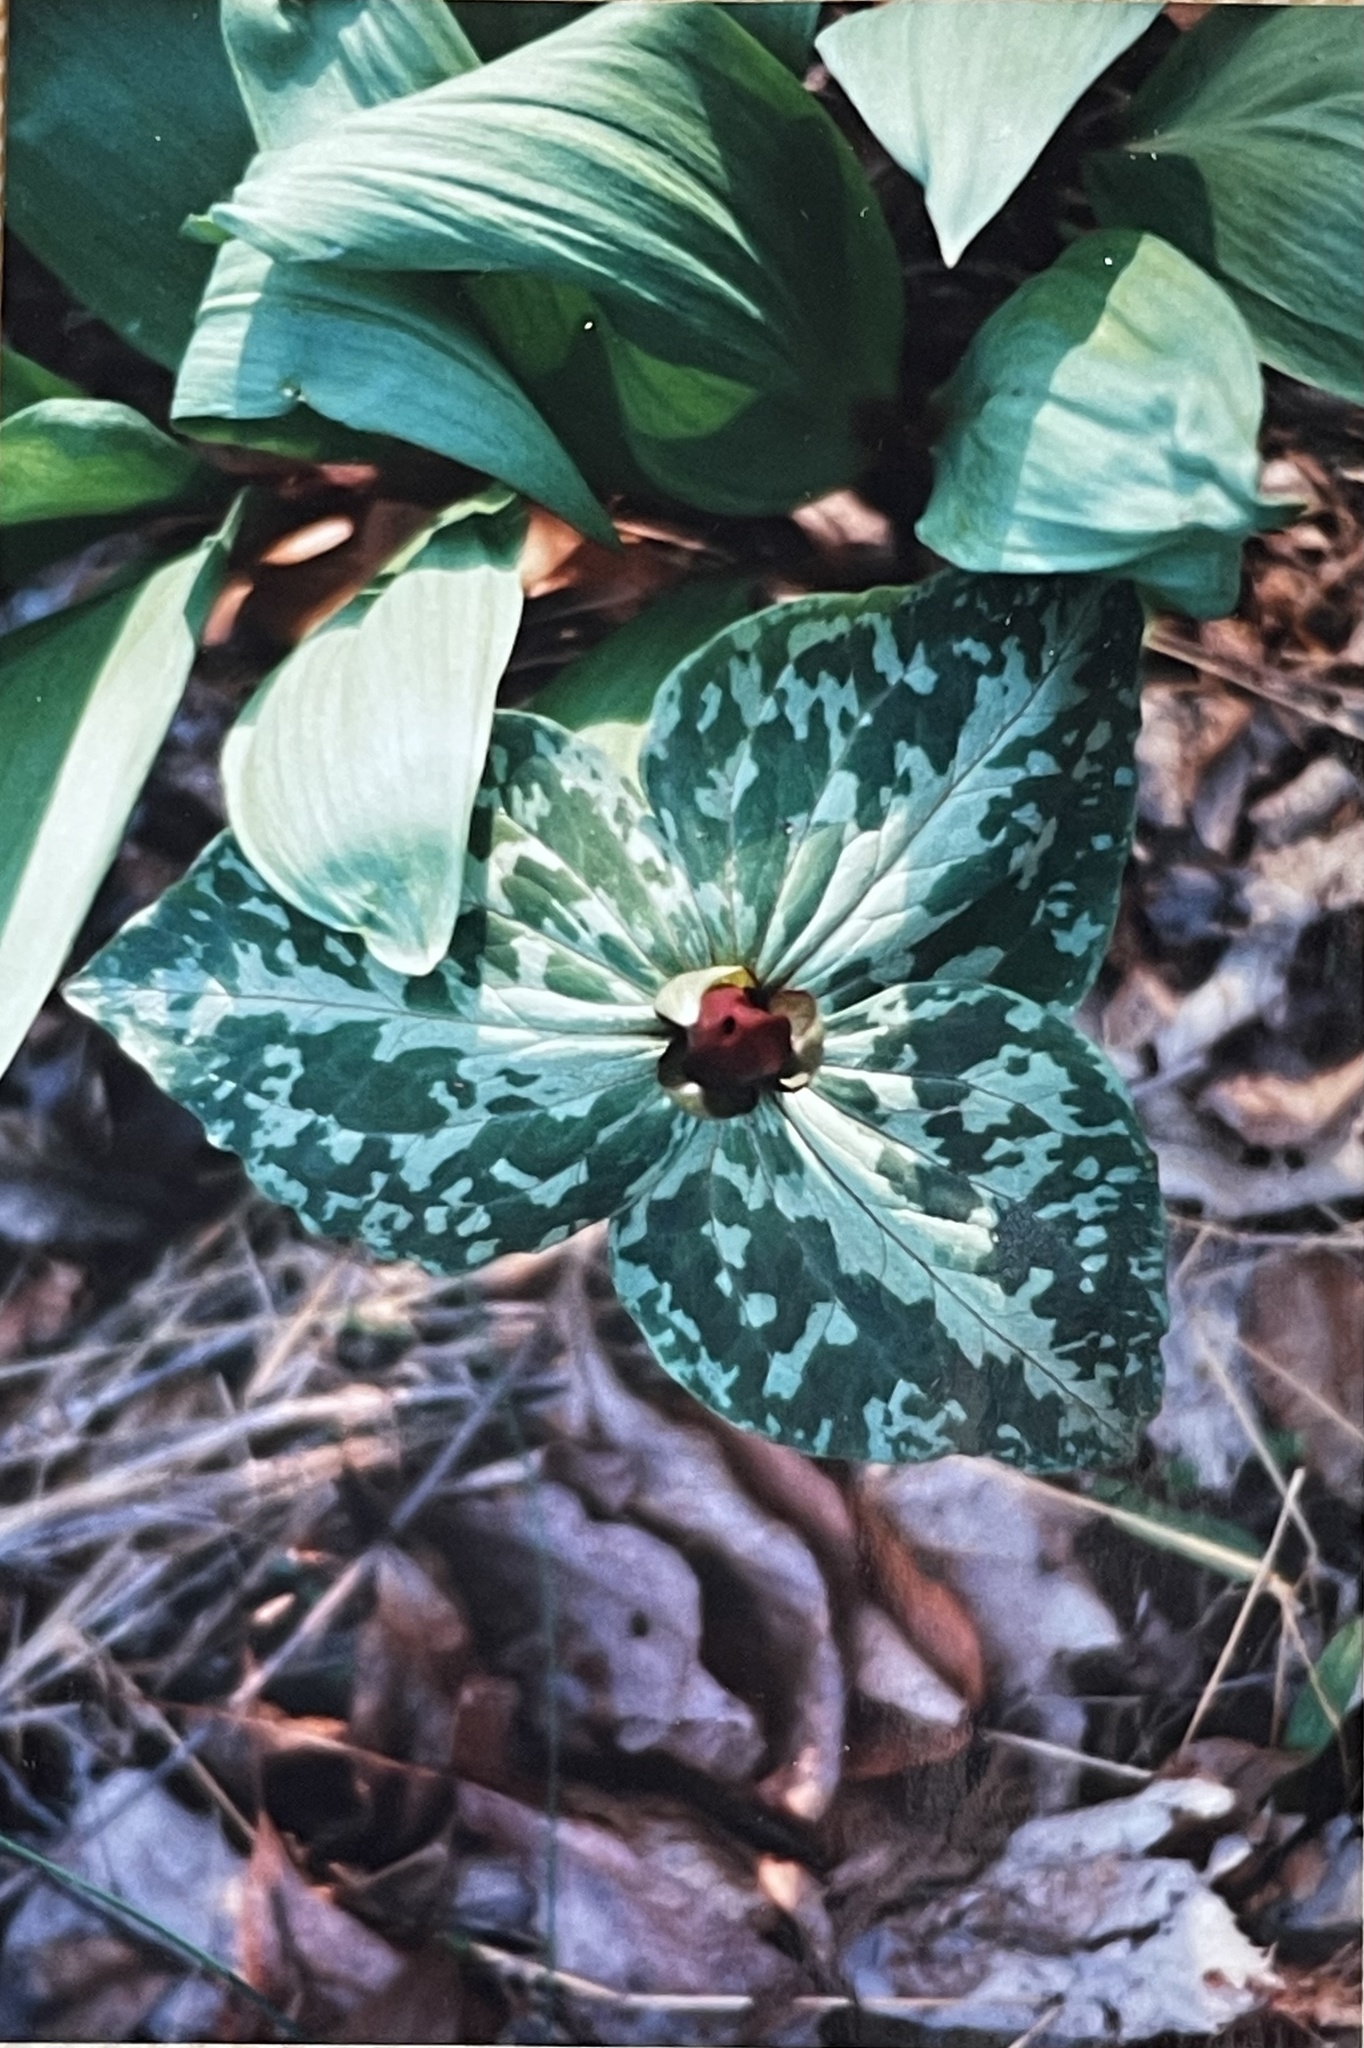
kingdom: Plantae
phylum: Tracheophyta
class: Liliopsida
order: Liliales
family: Melanthiaceae
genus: Trillium
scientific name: Trillium cuneatum
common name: Cuneate trillium
